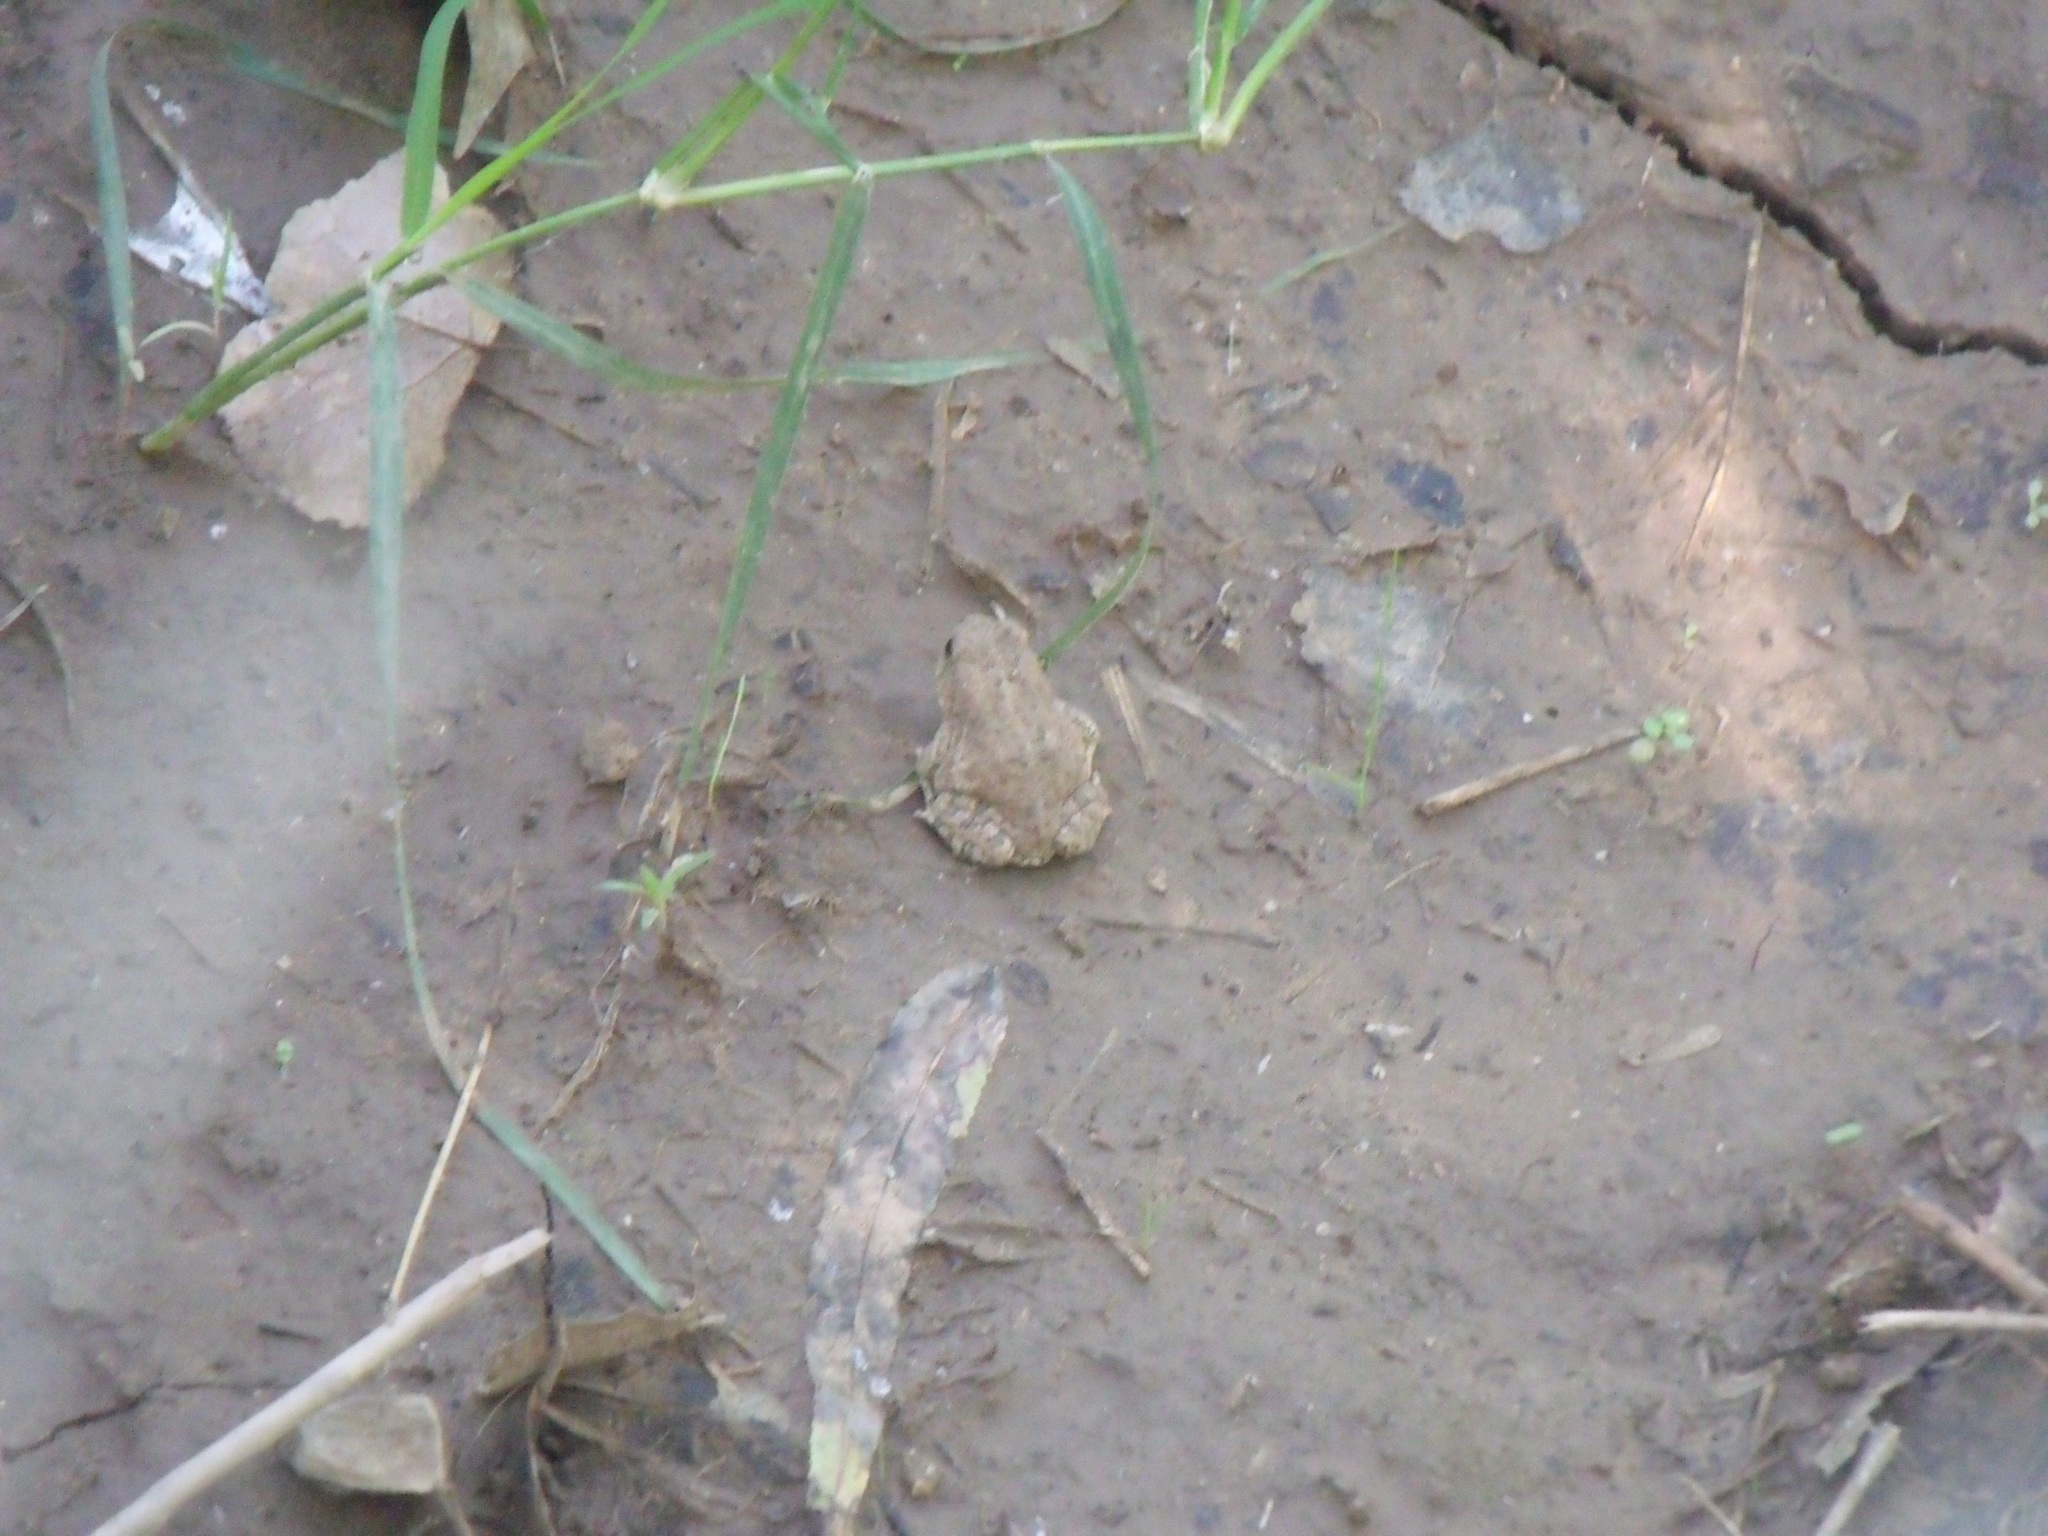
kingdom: Animalia
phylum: Chordata
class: Amphibia
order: Anura
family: Bufonidae
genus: Anaxyrus
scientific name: Anaxyrus woodhousii
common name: Woodhouse's toad
